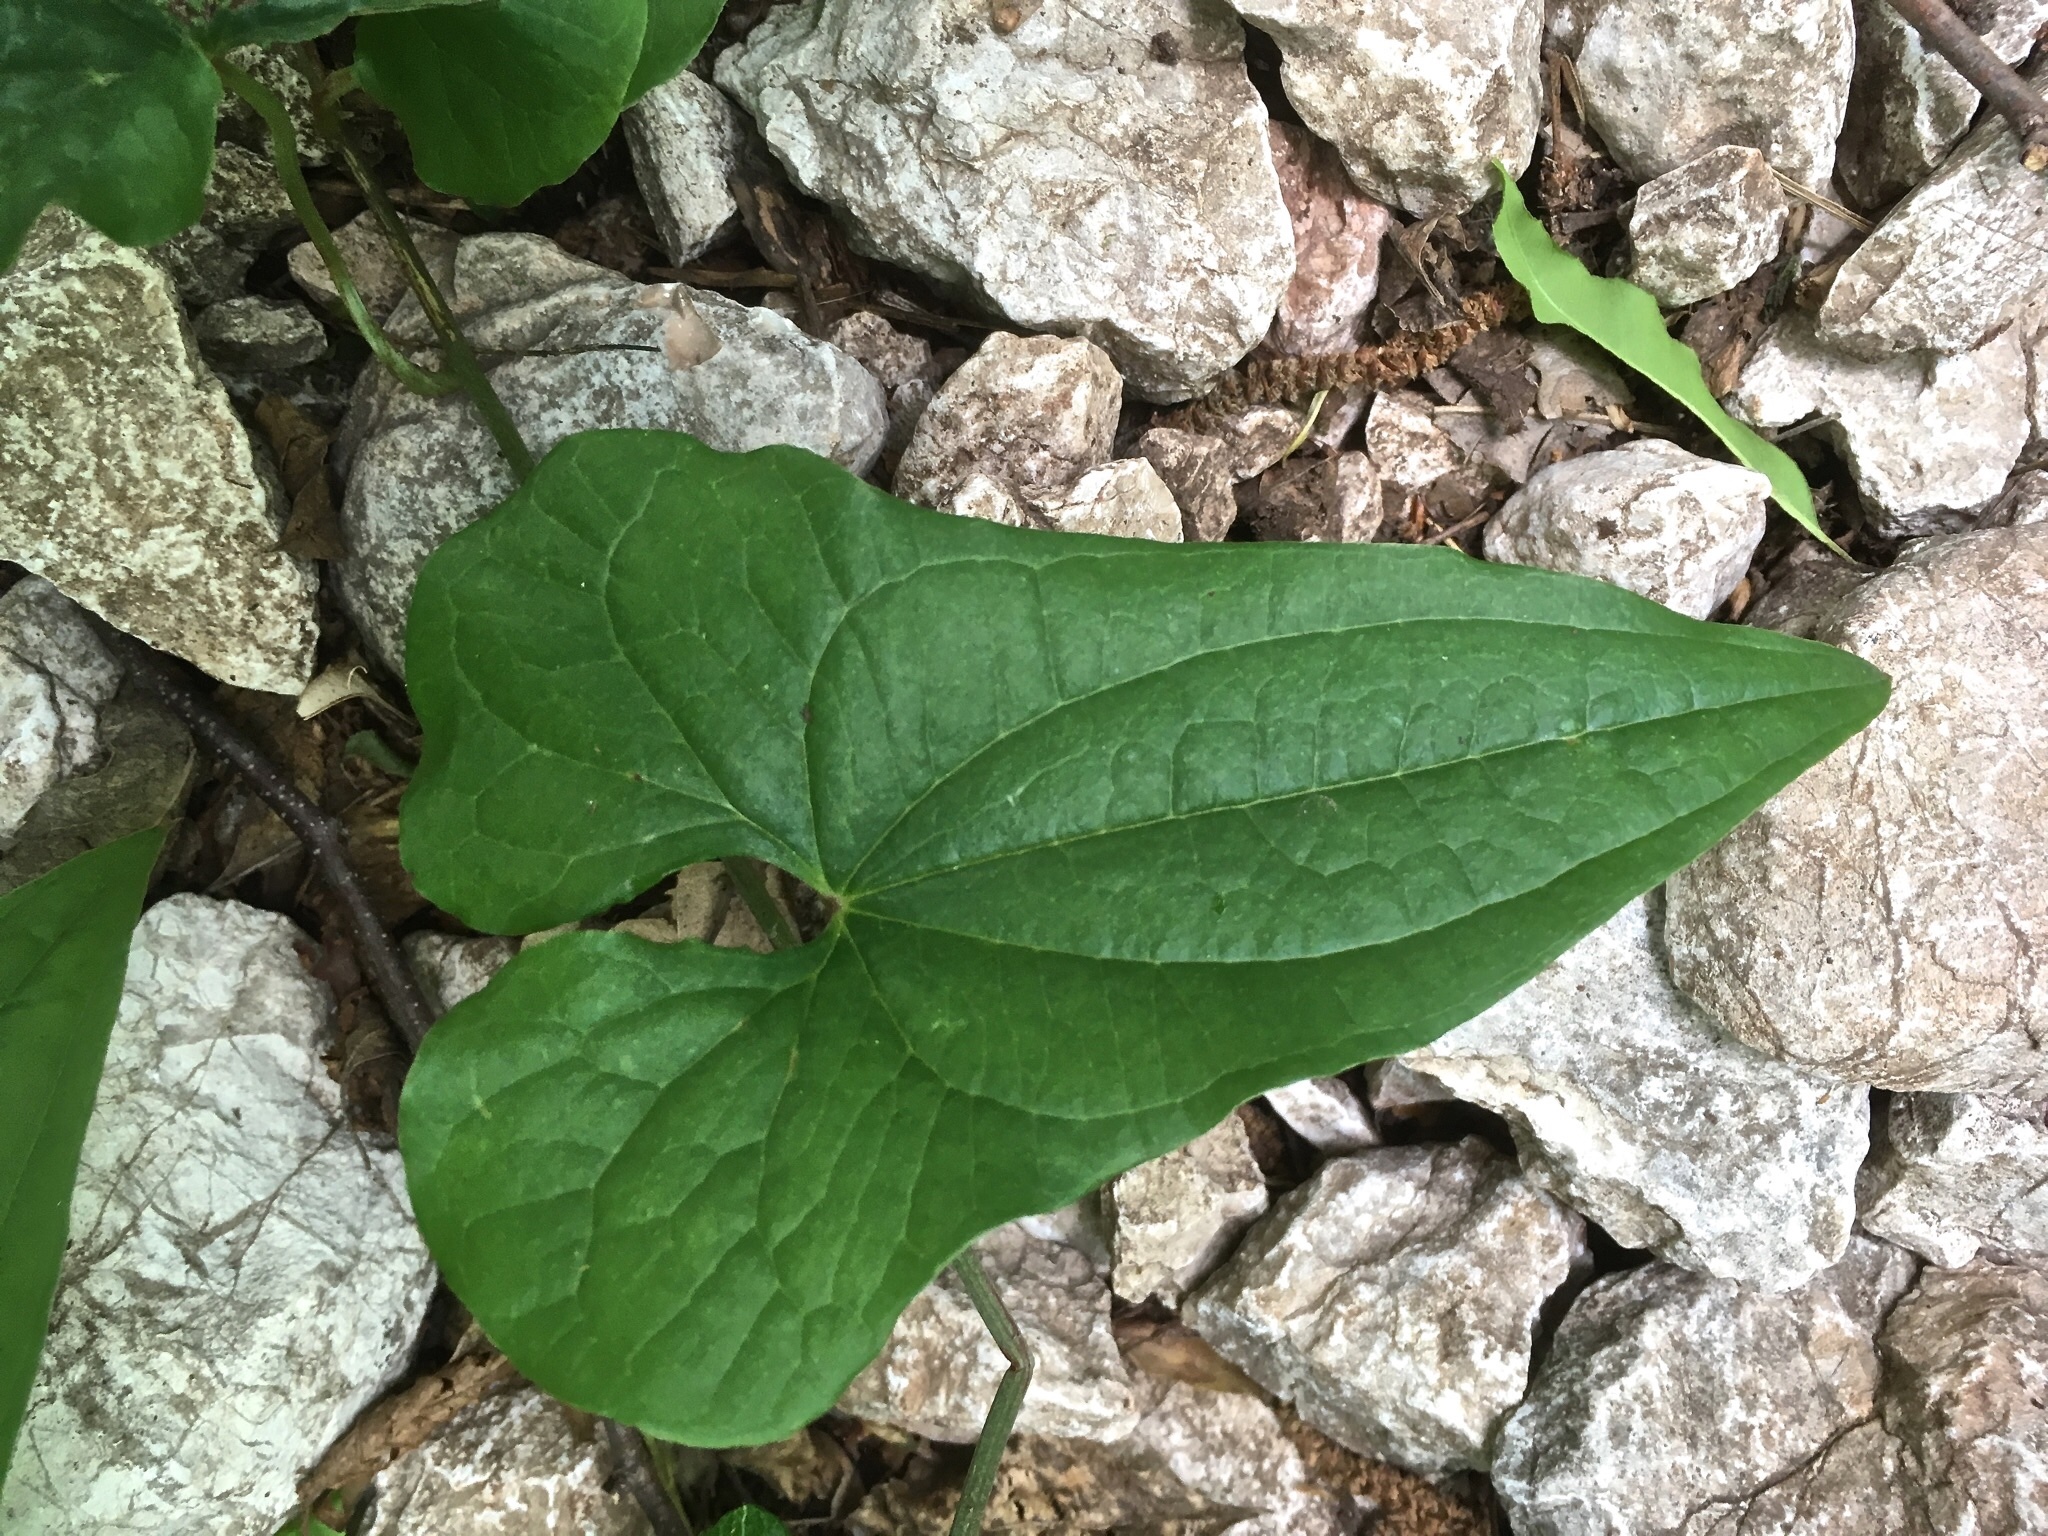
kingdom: Plantae
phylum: Tracheophyta
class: Liliopsida
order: Dioscoreales
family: Dioscoreaceae
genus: Dioscorea
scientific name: Dioscorea communis
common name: Black-bindweed
